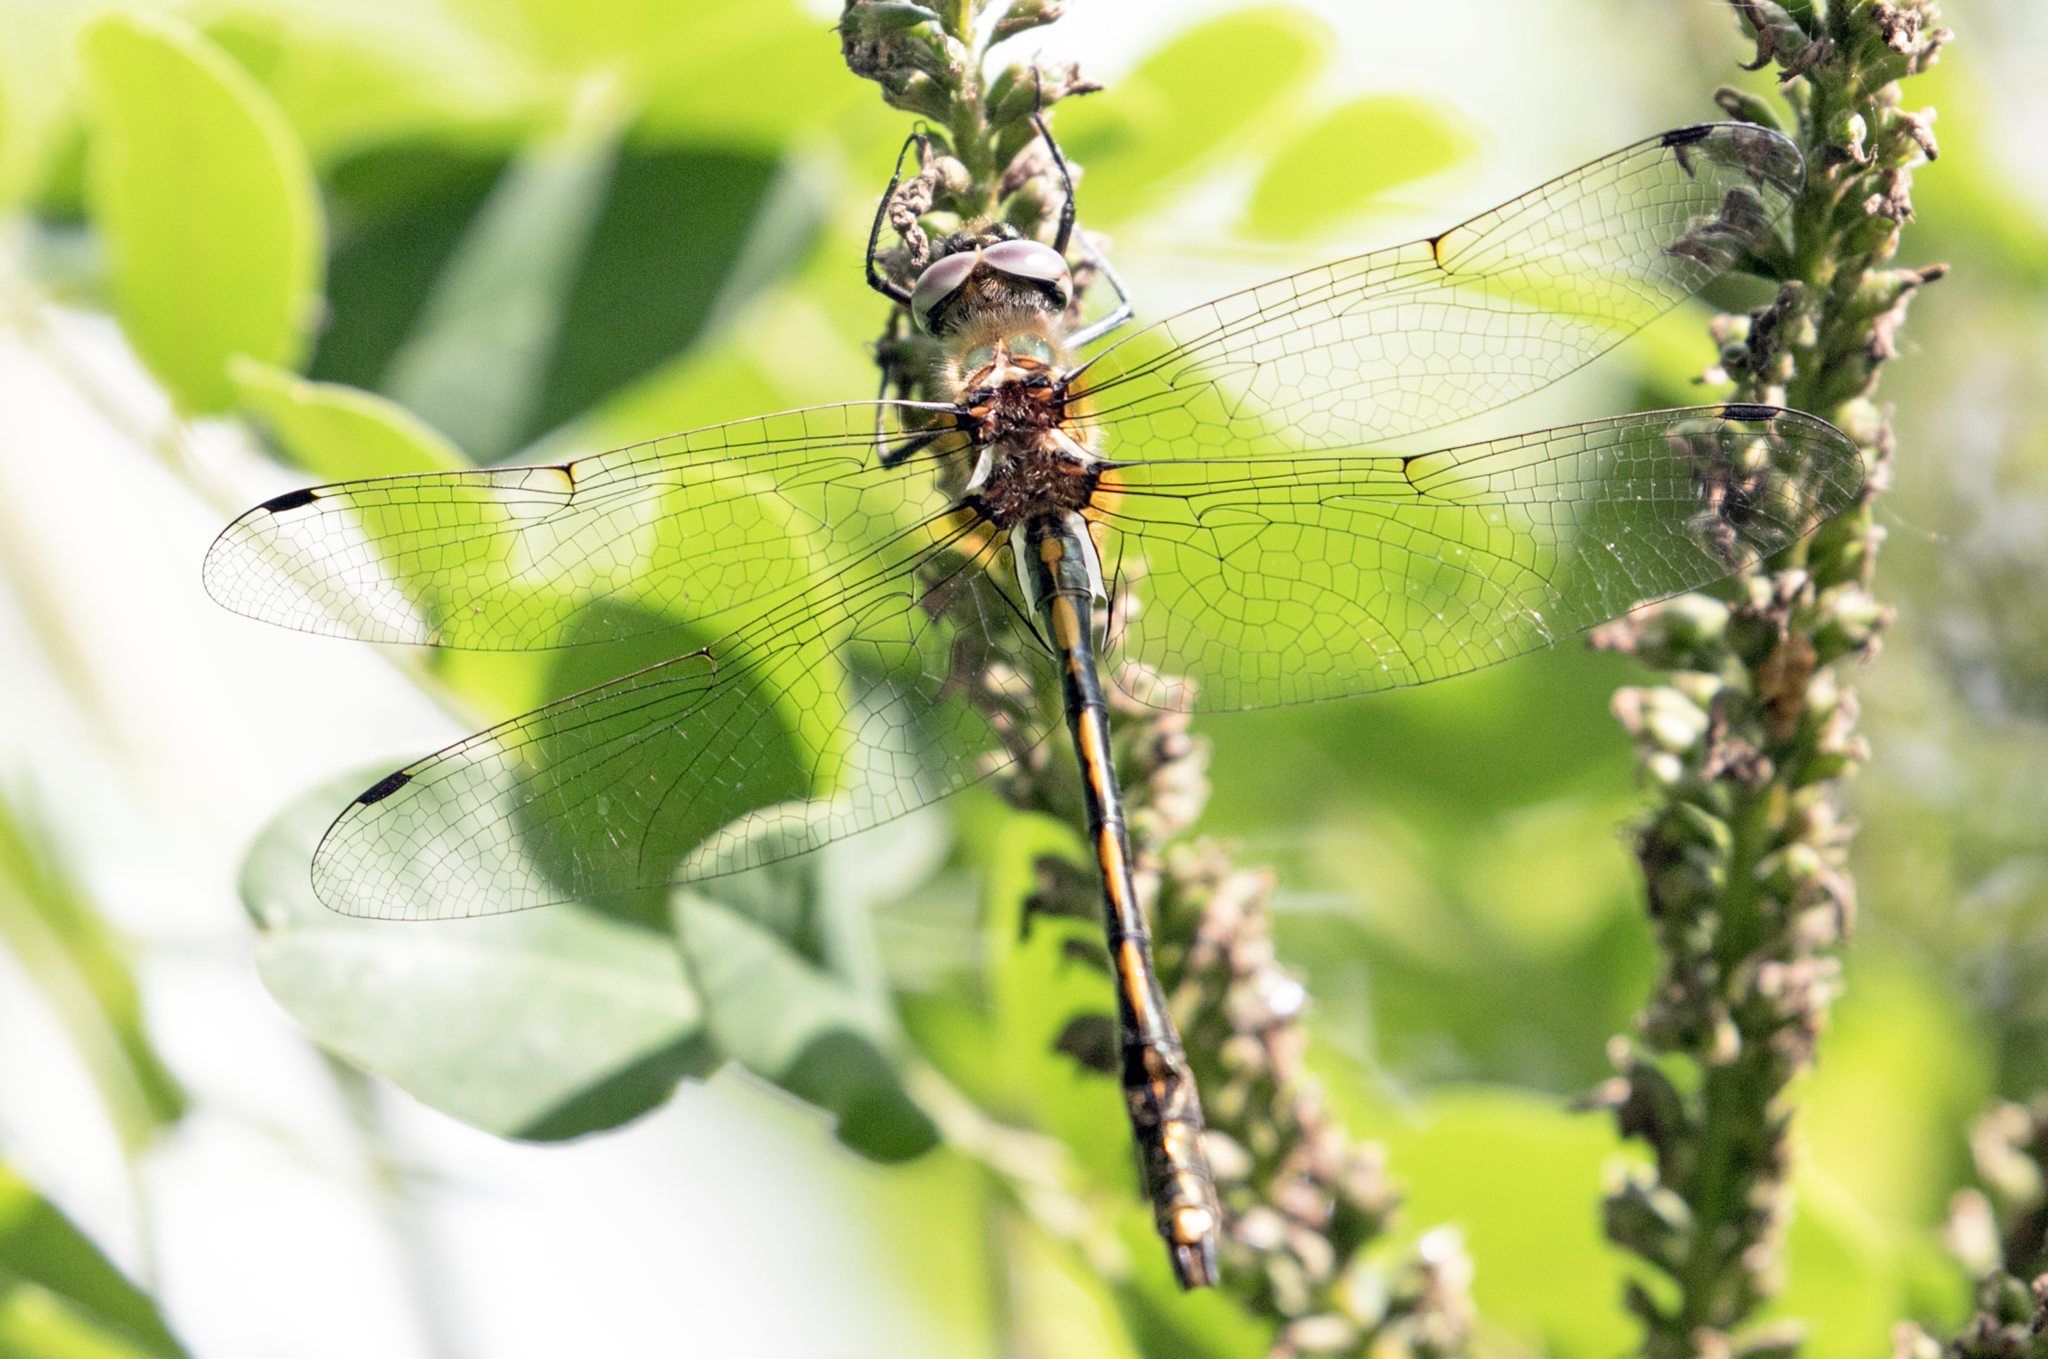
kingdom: Animalia
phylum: Arthropoda
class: Insecta
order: Odonata
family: Corduliidae
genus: Oxygastra
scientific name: Oxygastra curtisii
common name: Orange-spotted emerald
